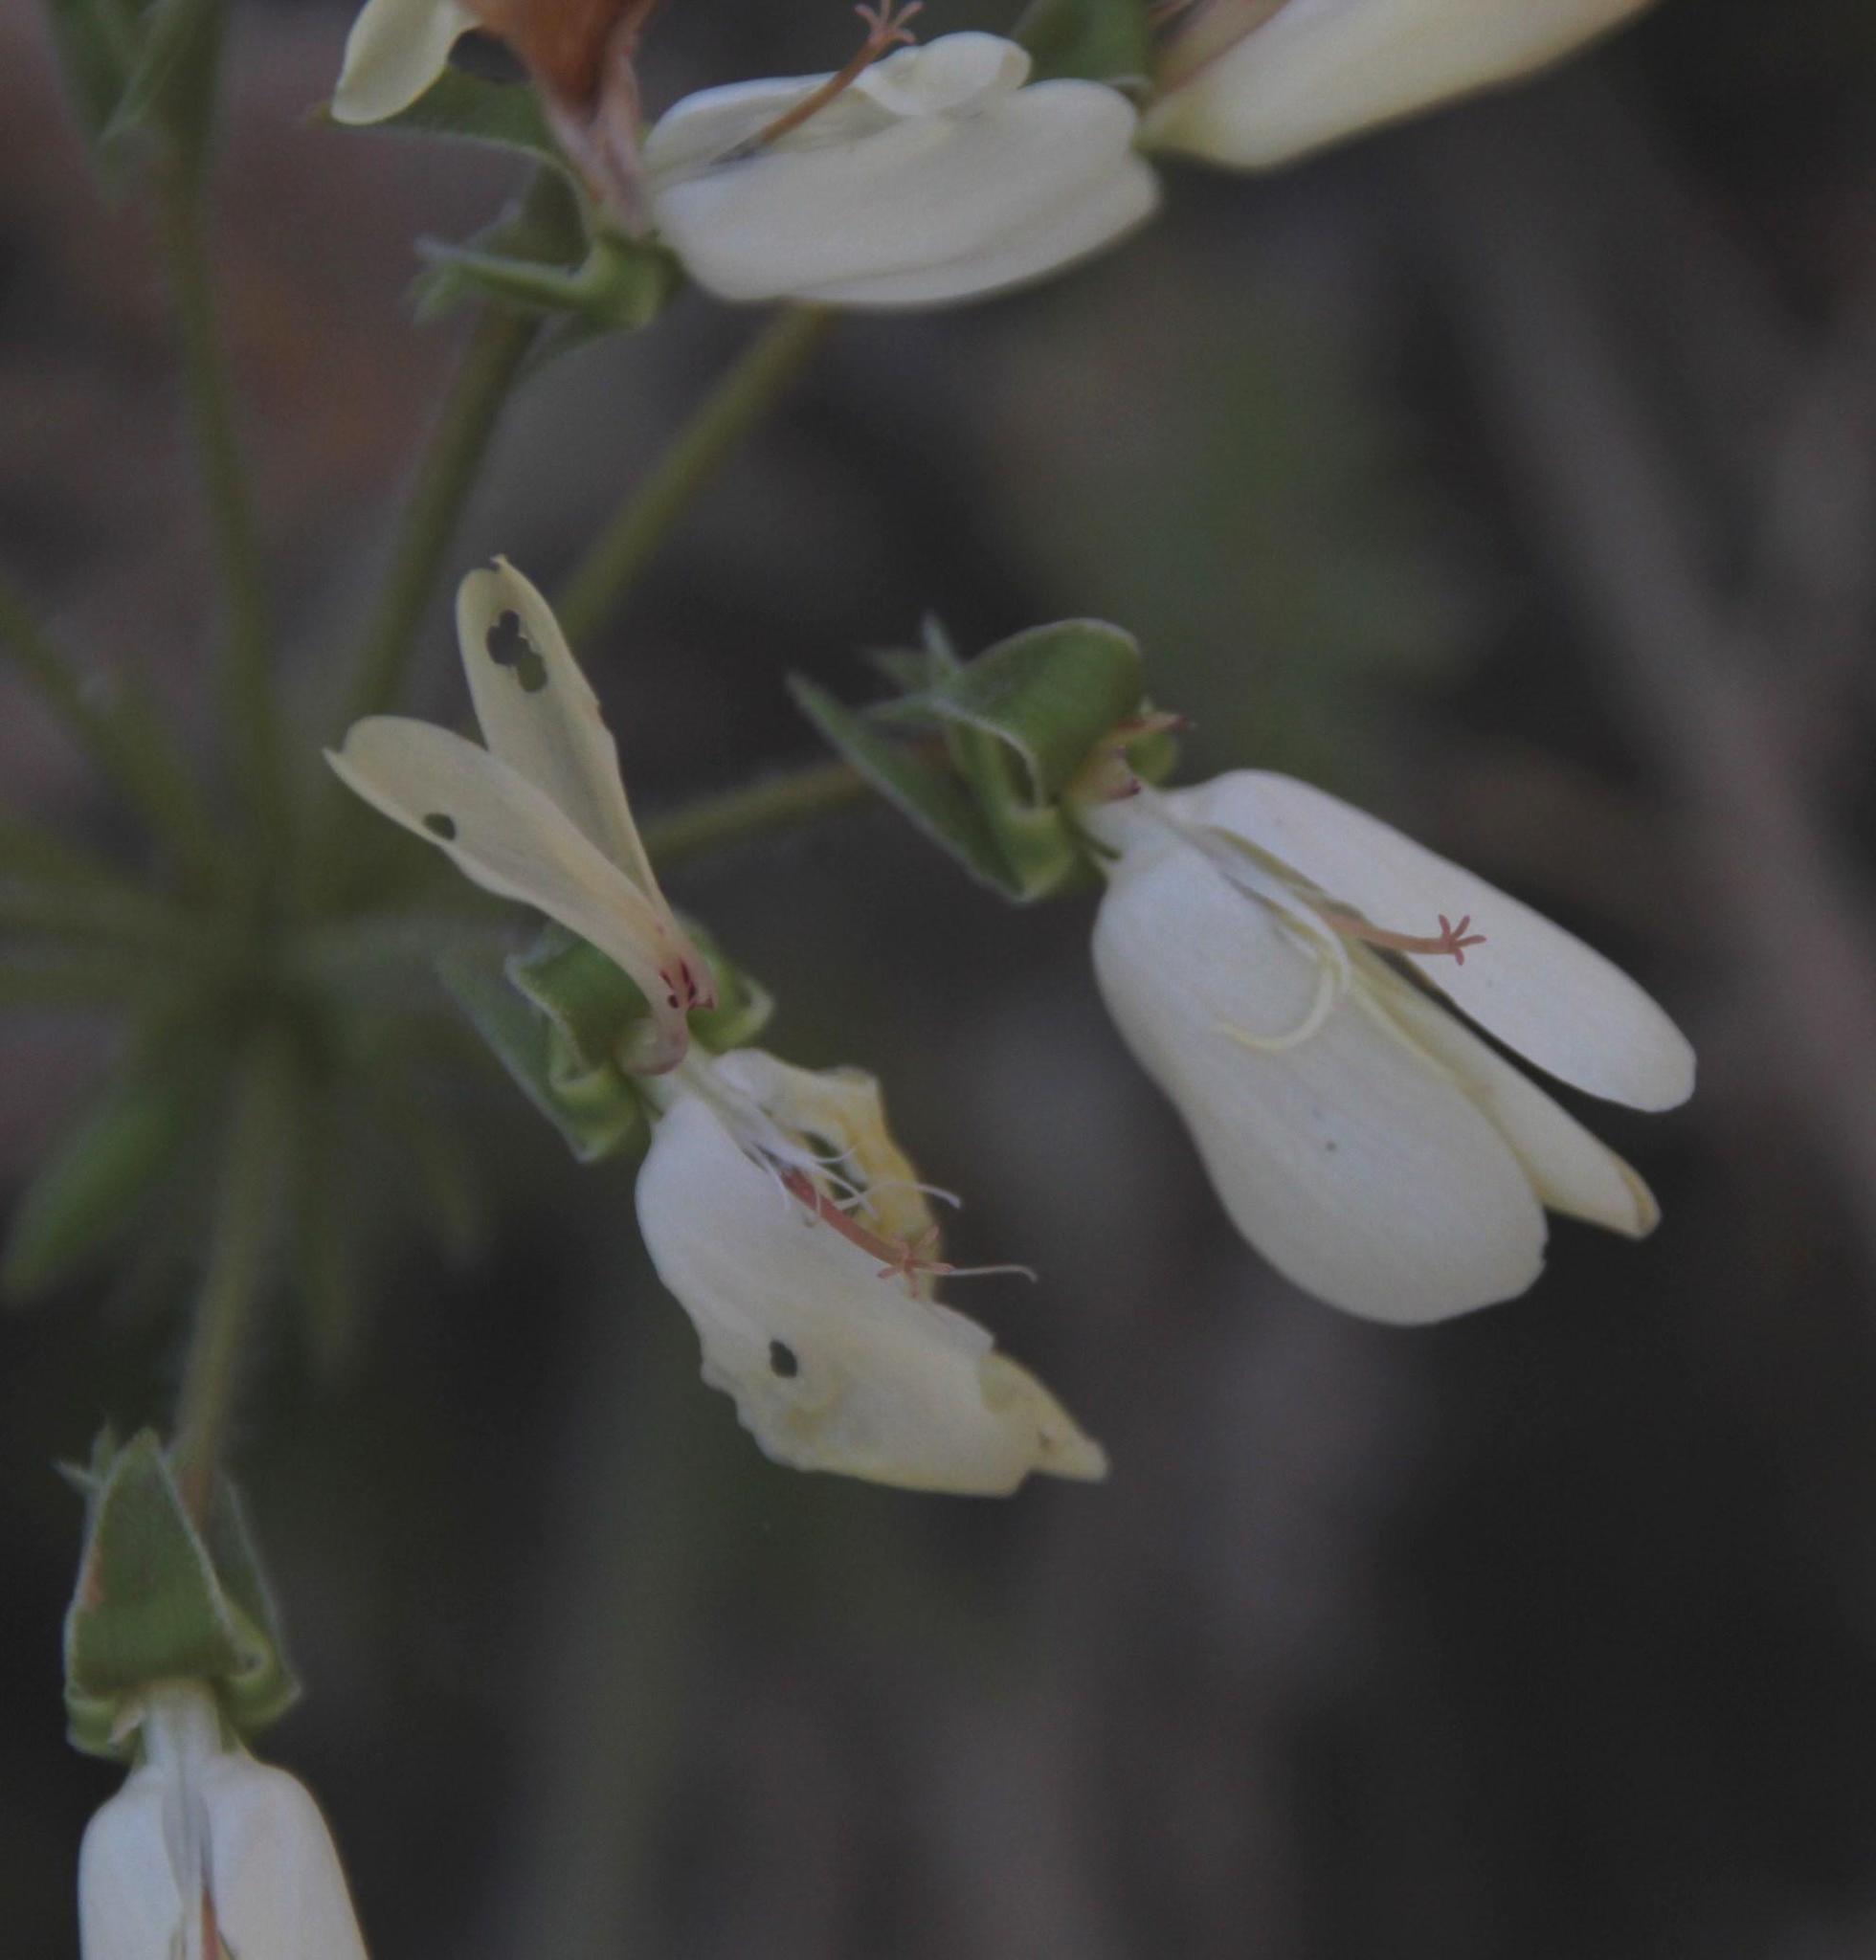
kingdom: Plantae
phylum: Tracheophyta
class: Magnoliopsida
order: Geraniales
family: Geraniaceae
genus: Pelargonium
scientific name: Pelargonium rapaceum
